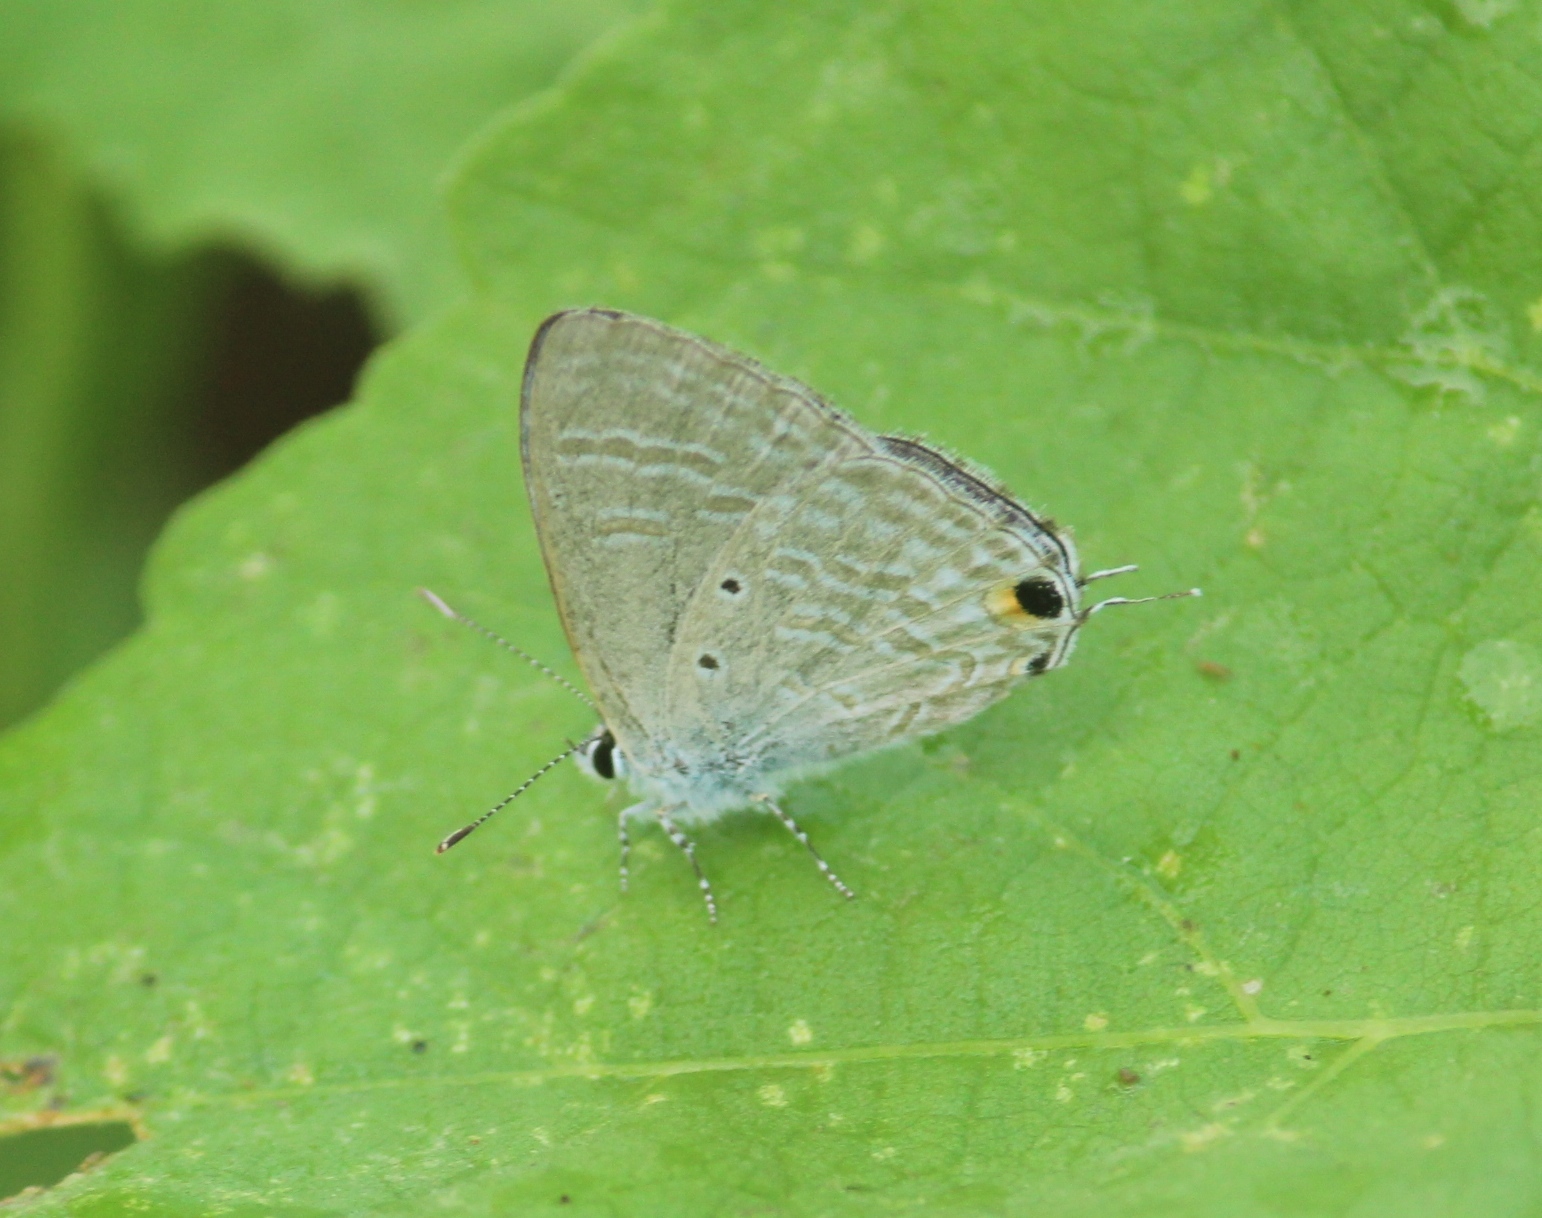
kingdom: Animalia
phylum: Arthropoda
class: Insecta
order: Lepidoptera
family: Lycaenidae
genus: Catochrysops
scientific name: Catochrysops strabo
